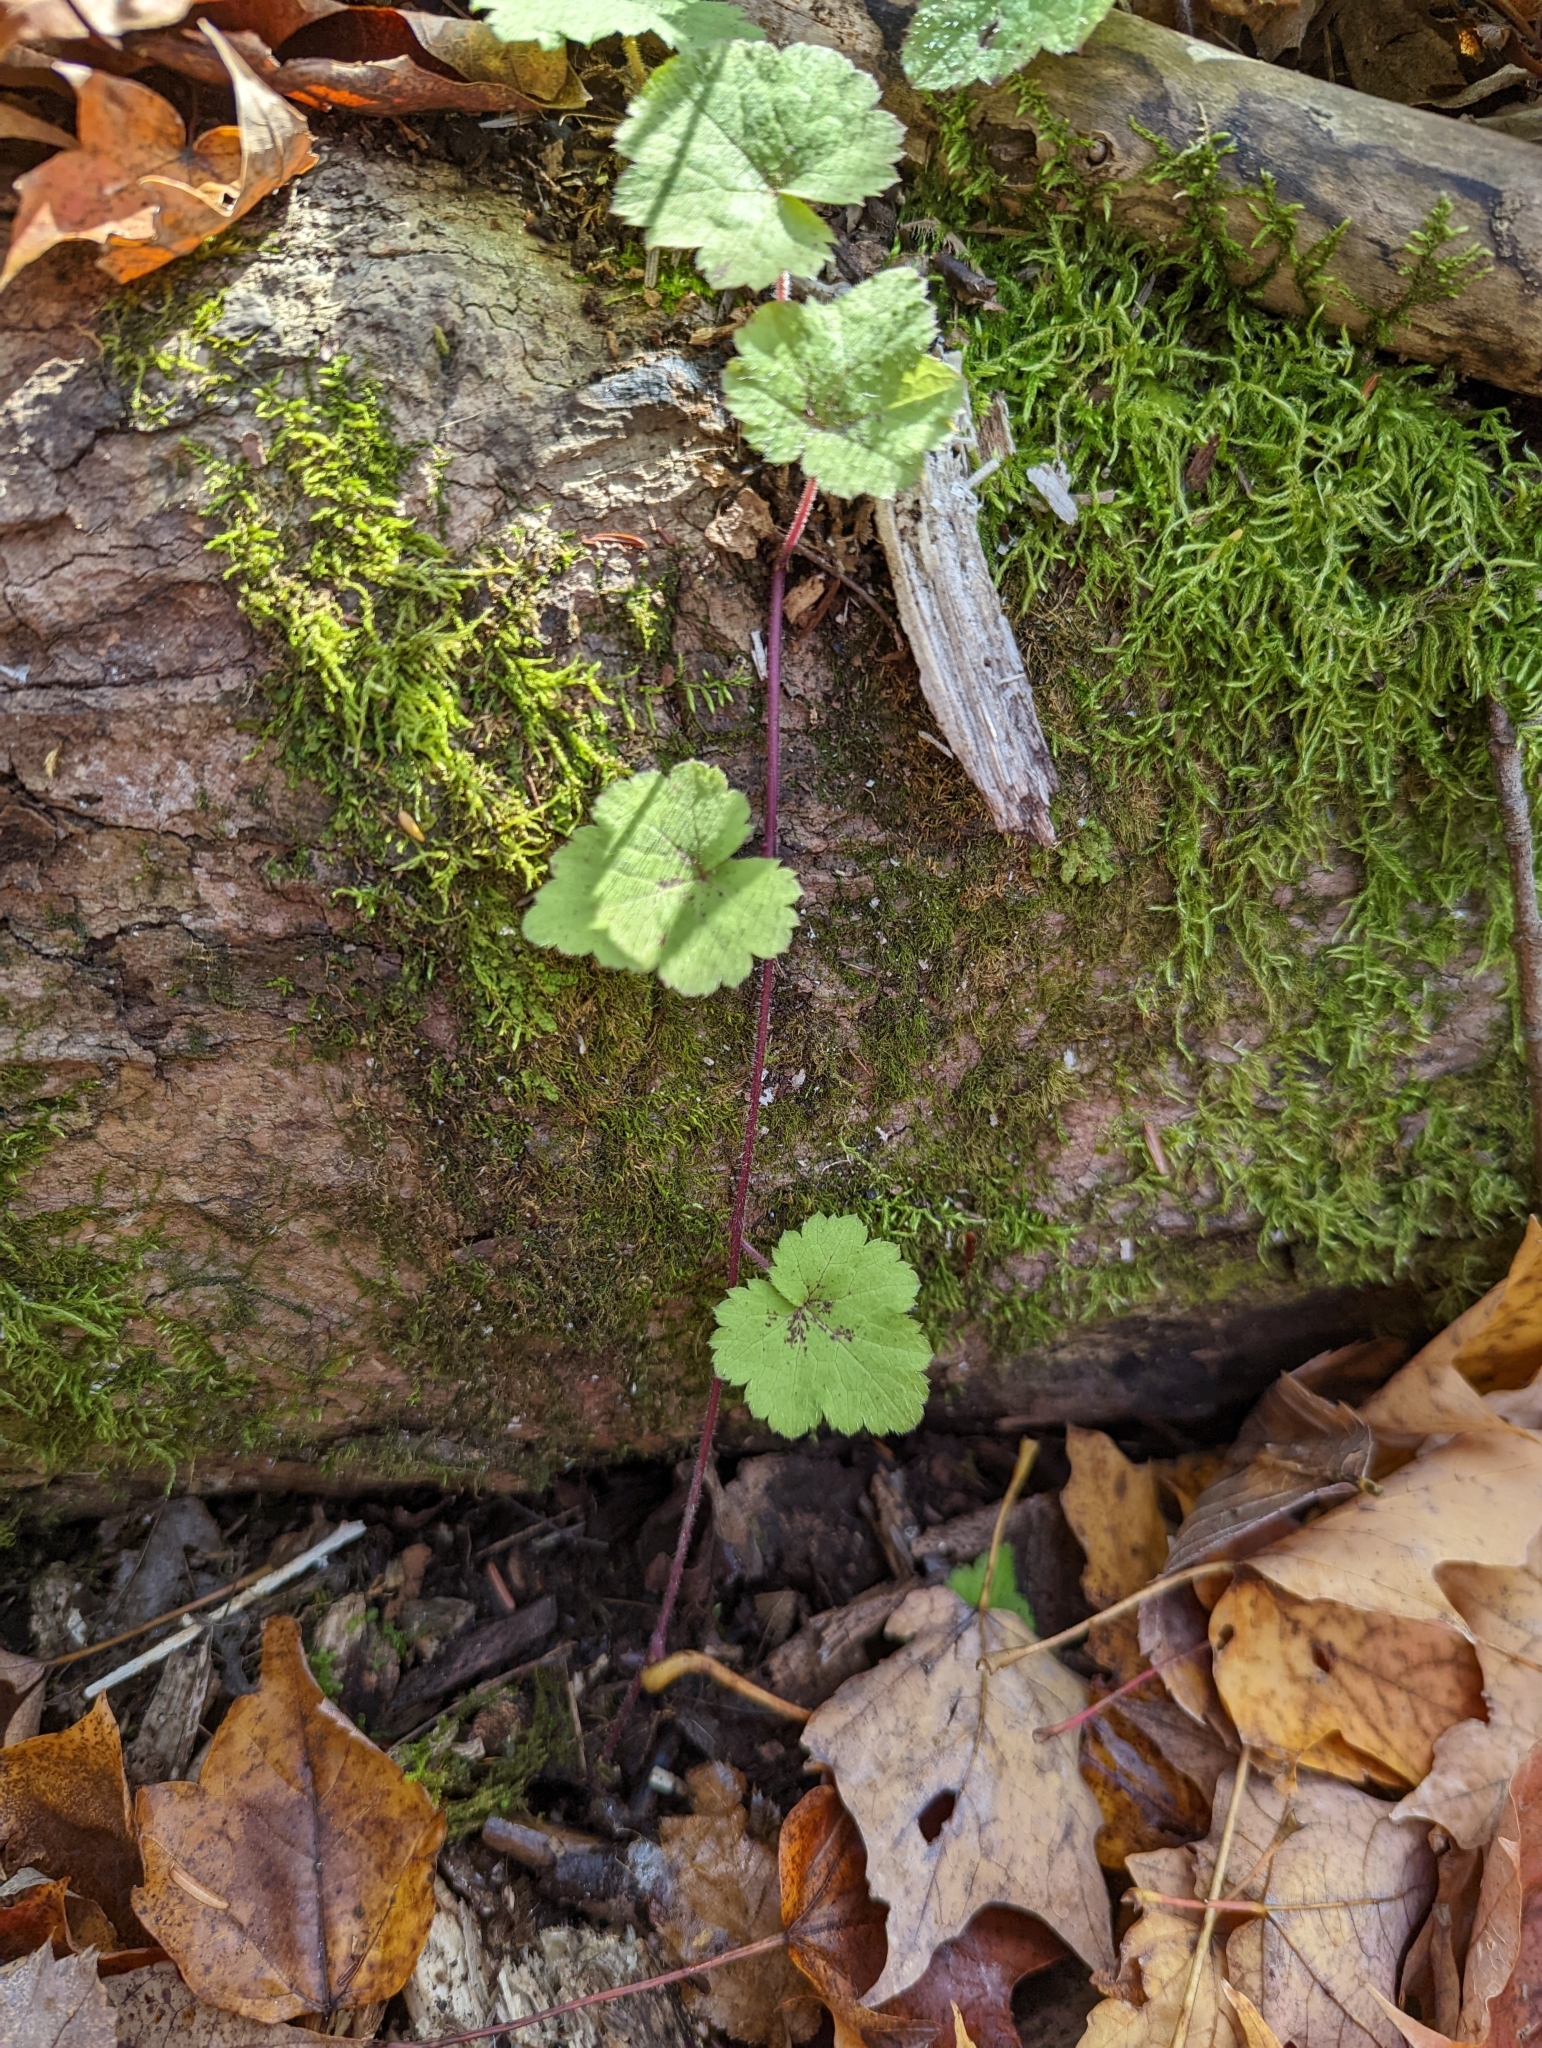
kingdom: Plantae
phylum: Tracheophyta
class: Magnoliopsida
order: Saxifragales
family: Saxifragaceae
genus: Tiarella
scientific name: Tiarella stolonifera
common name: Stoloniferous foamflower
